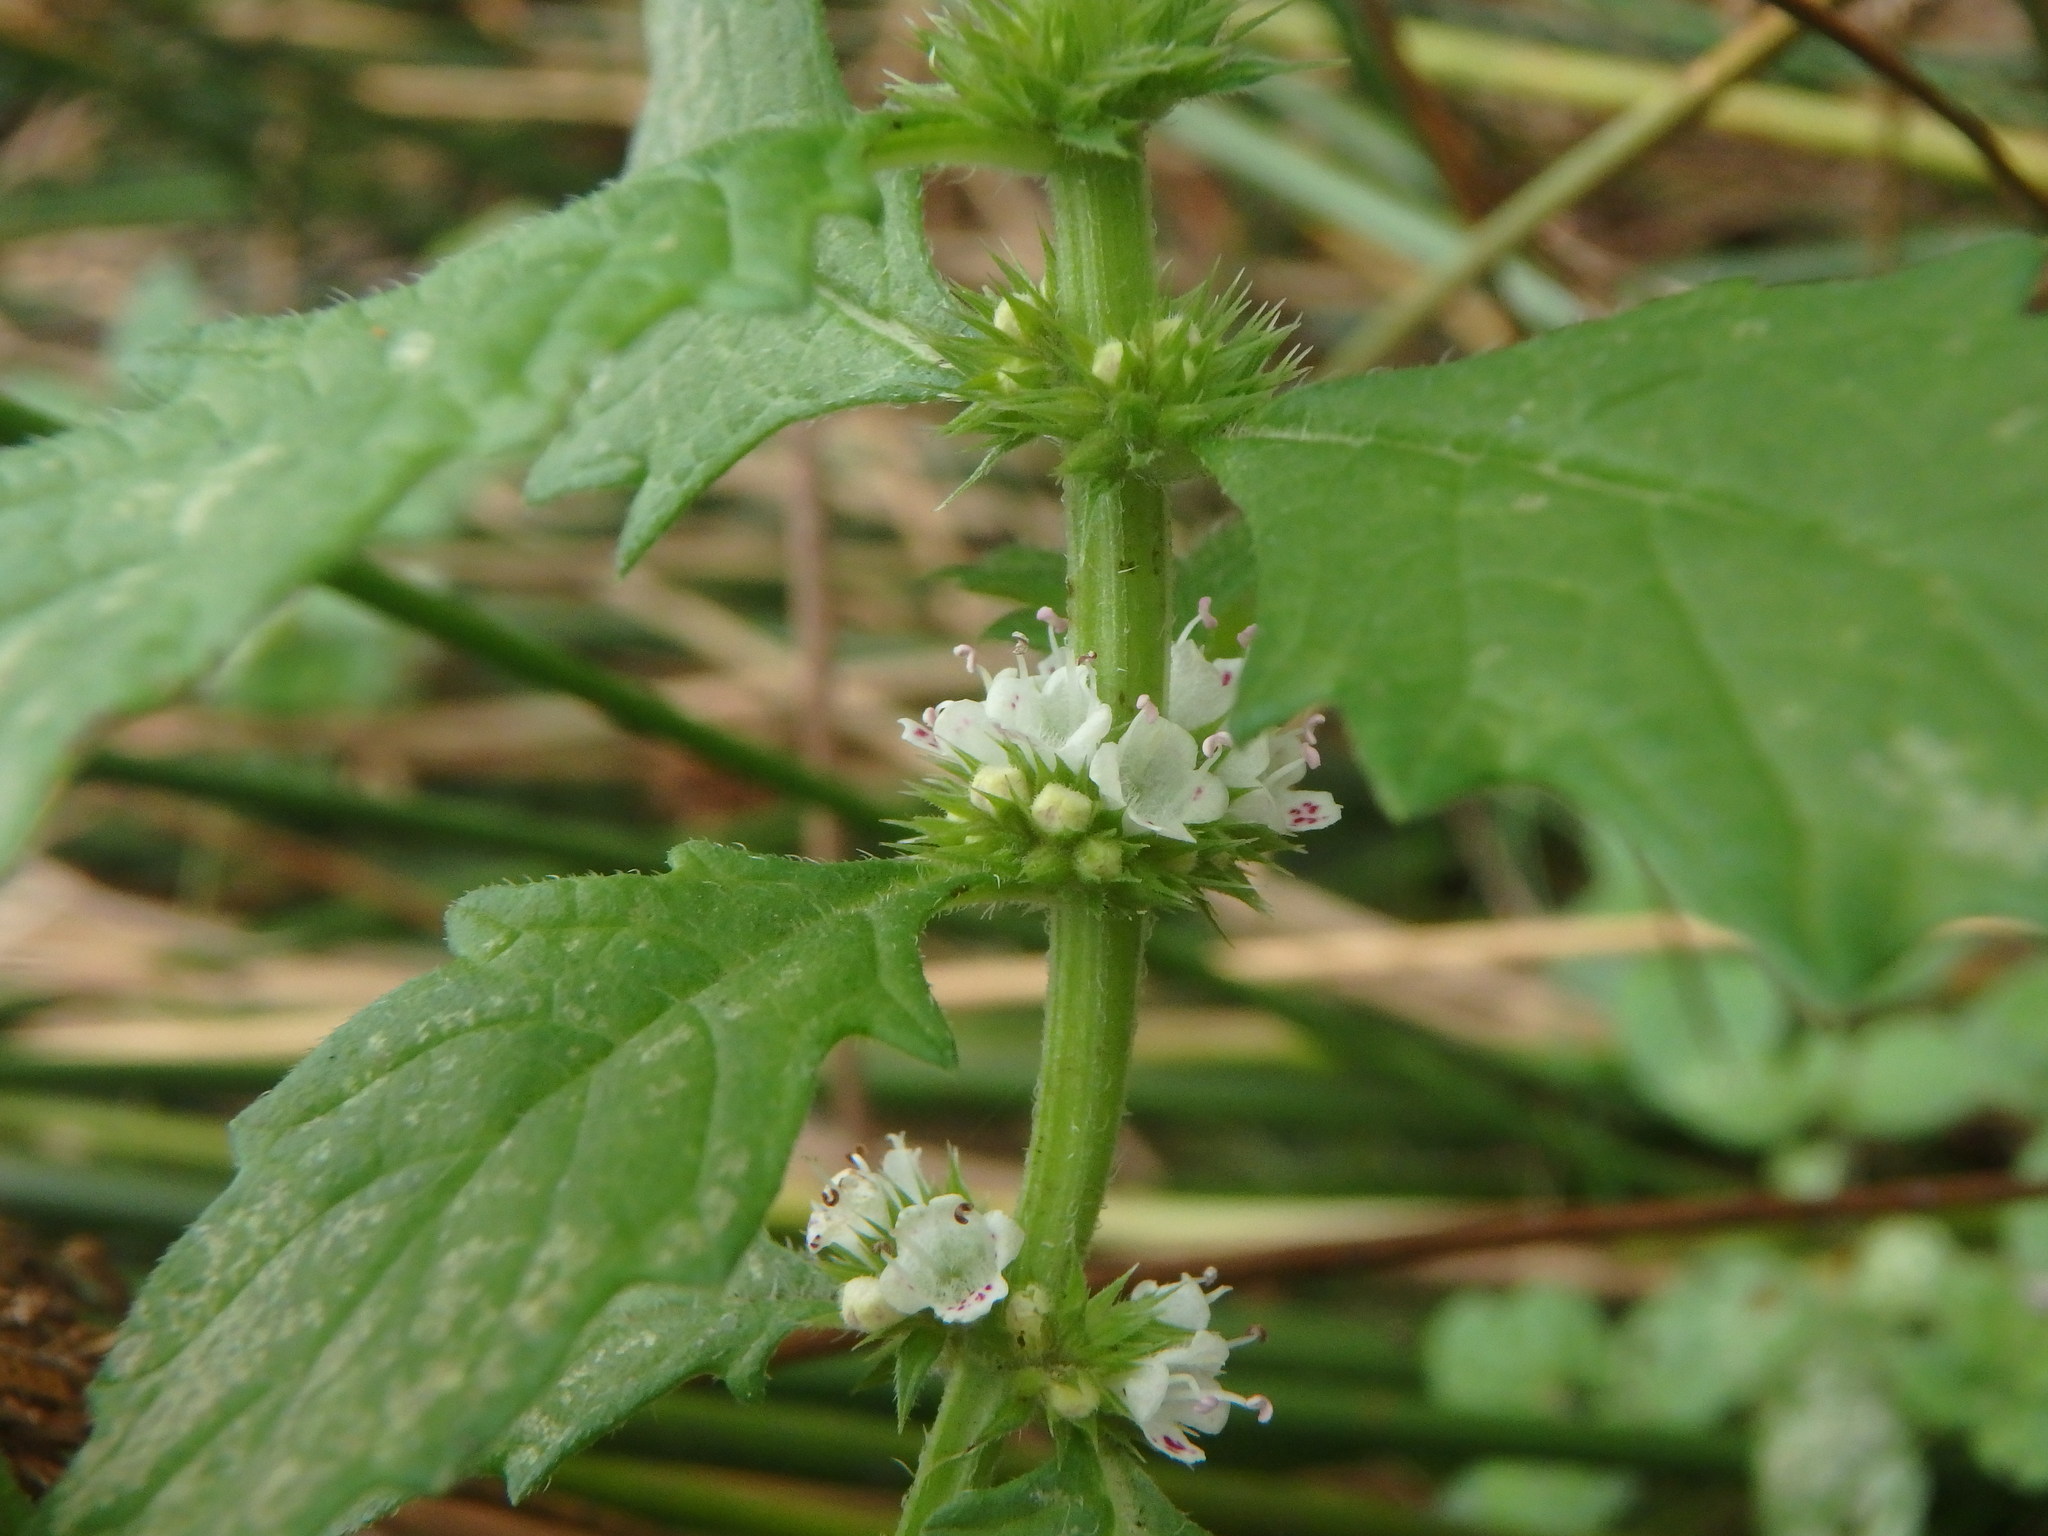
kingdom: Plantae
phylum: Tracheophyta
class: Magnoliopsida
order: Lamiales
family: Lamiaceae
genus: Lycopus
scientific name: Lycopus europaeus
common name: European bugleweed
